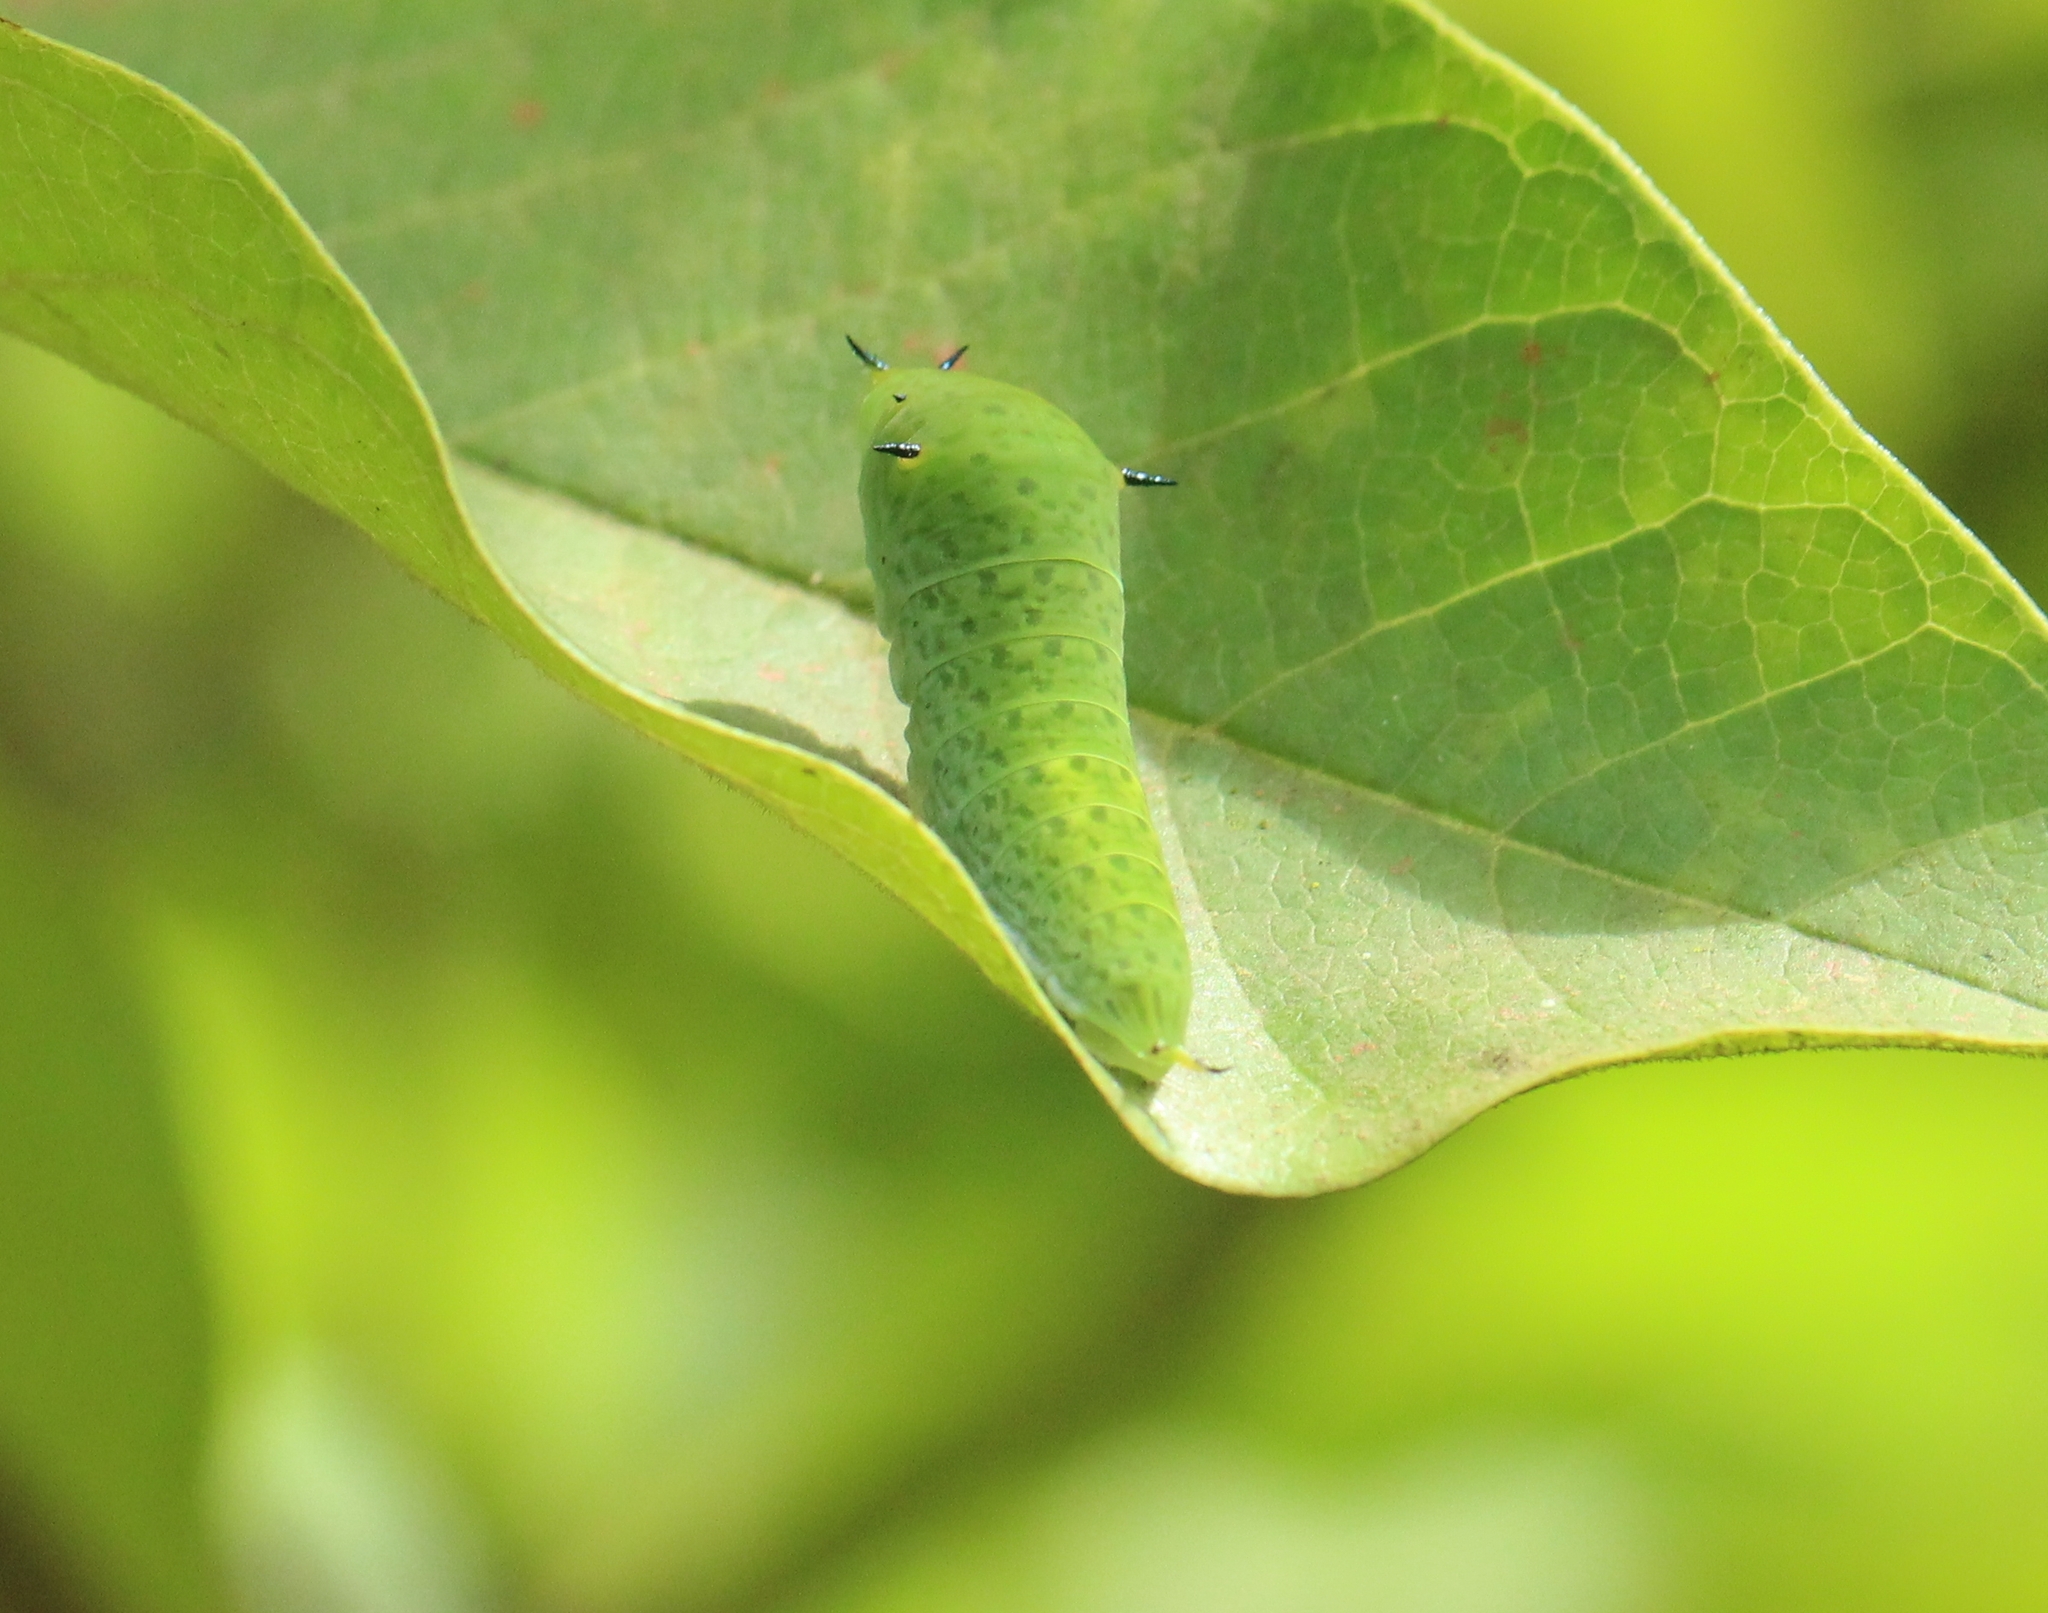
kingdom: Animalia
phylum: Arthropoda
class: Insecta
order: Lepidoptera
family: Papilionidae
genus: Graphium
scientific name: Graphium agamemnon
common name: Tailed jay
